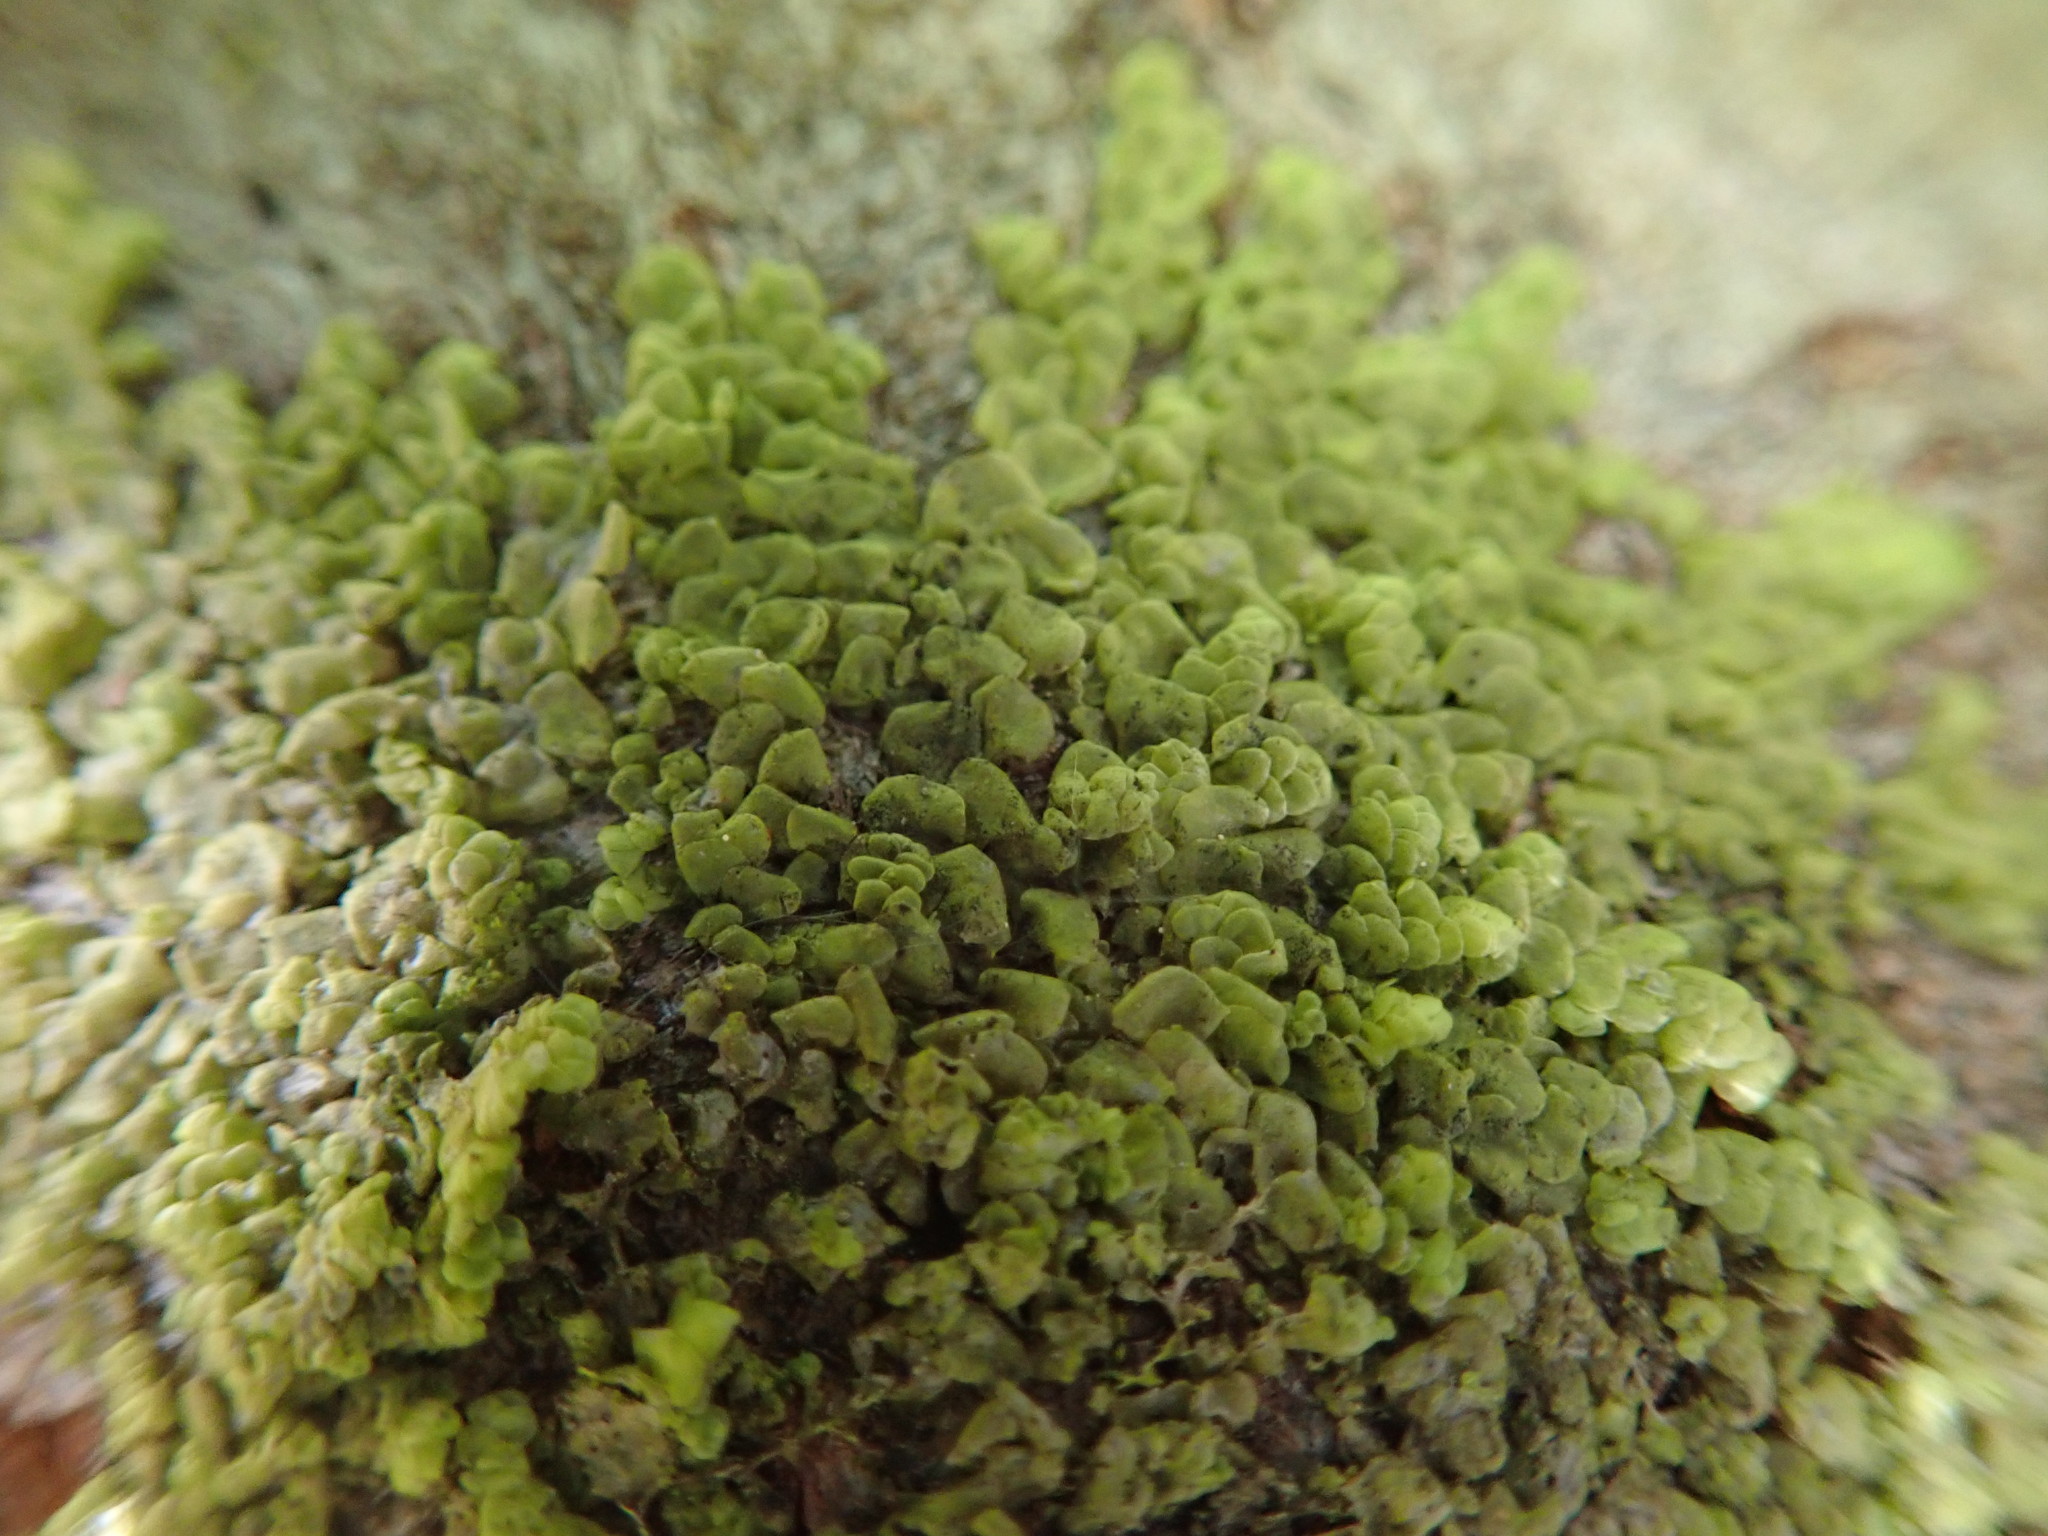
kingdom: Plantae
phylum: Marchantiophyta
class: Jungermanniopsida
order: Porellales
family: Radulaceae
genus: Radula
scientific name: Radula complanata
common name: Flat-leaved scalewort
